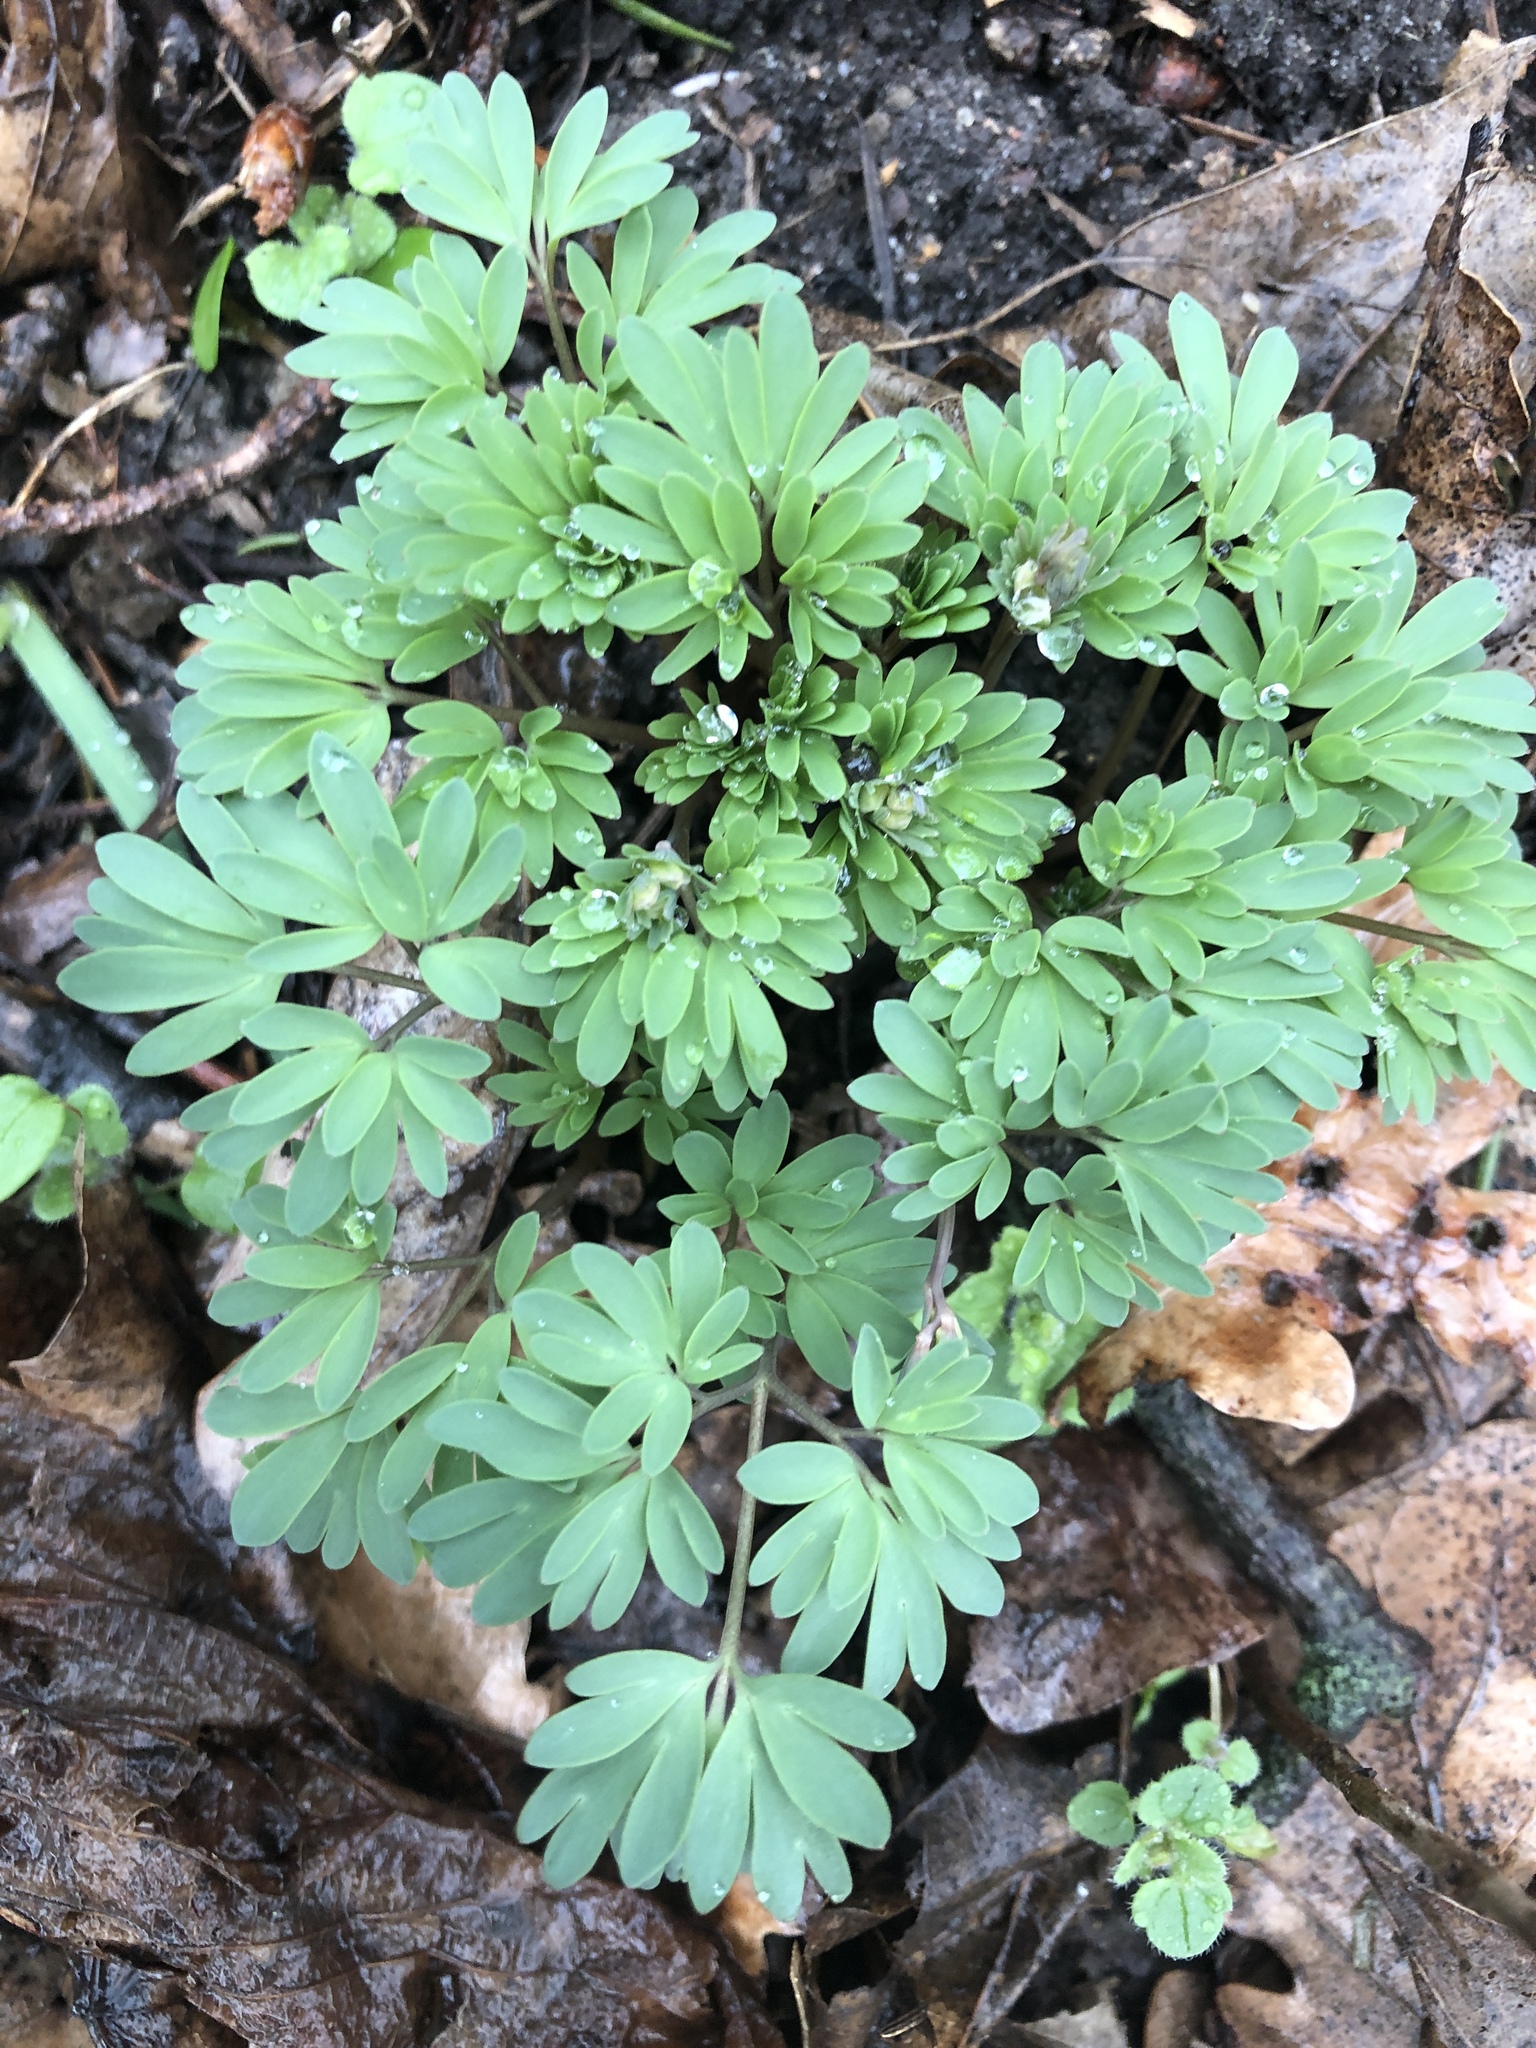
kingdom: Plantae
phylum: Tracheophyta
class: Magnoliopsida
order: Ranunculales
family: Papaveraceae
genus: Corydalis
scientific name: Corydalis solida
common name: Bird-in-a-bush
